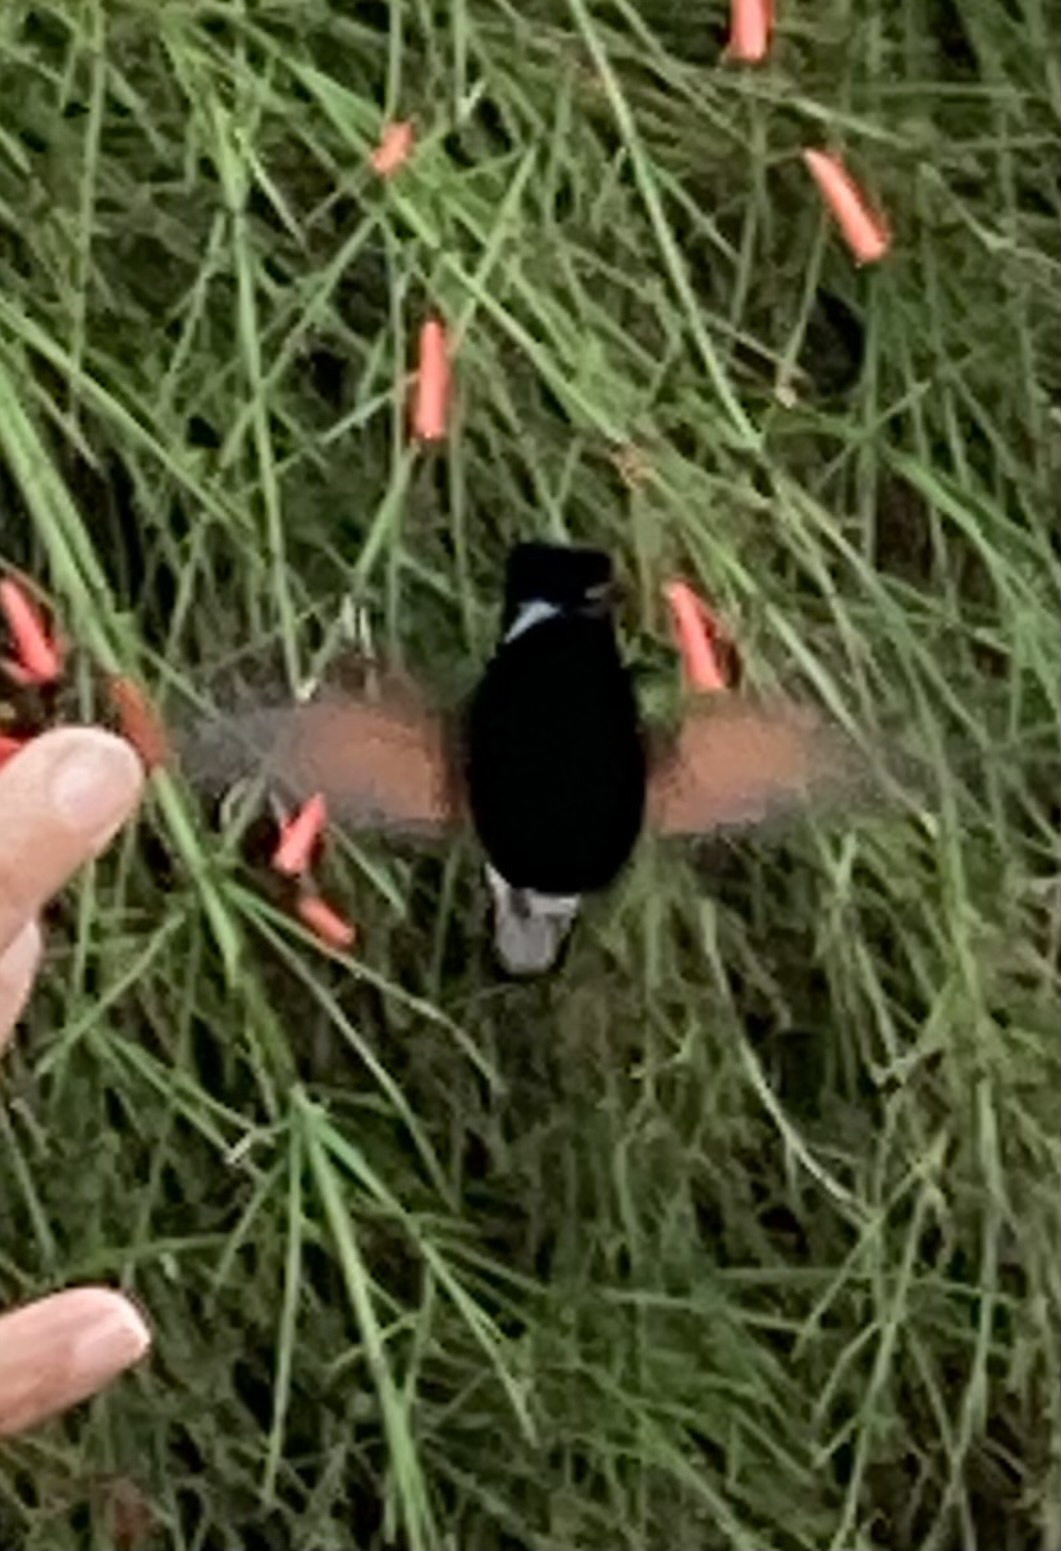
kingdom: Animalia
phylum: Chordata
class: Aves
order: Passeriformes
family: Thraupidae
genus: Sporophila
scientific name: Sporophila corvina
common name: Variable seedeater
